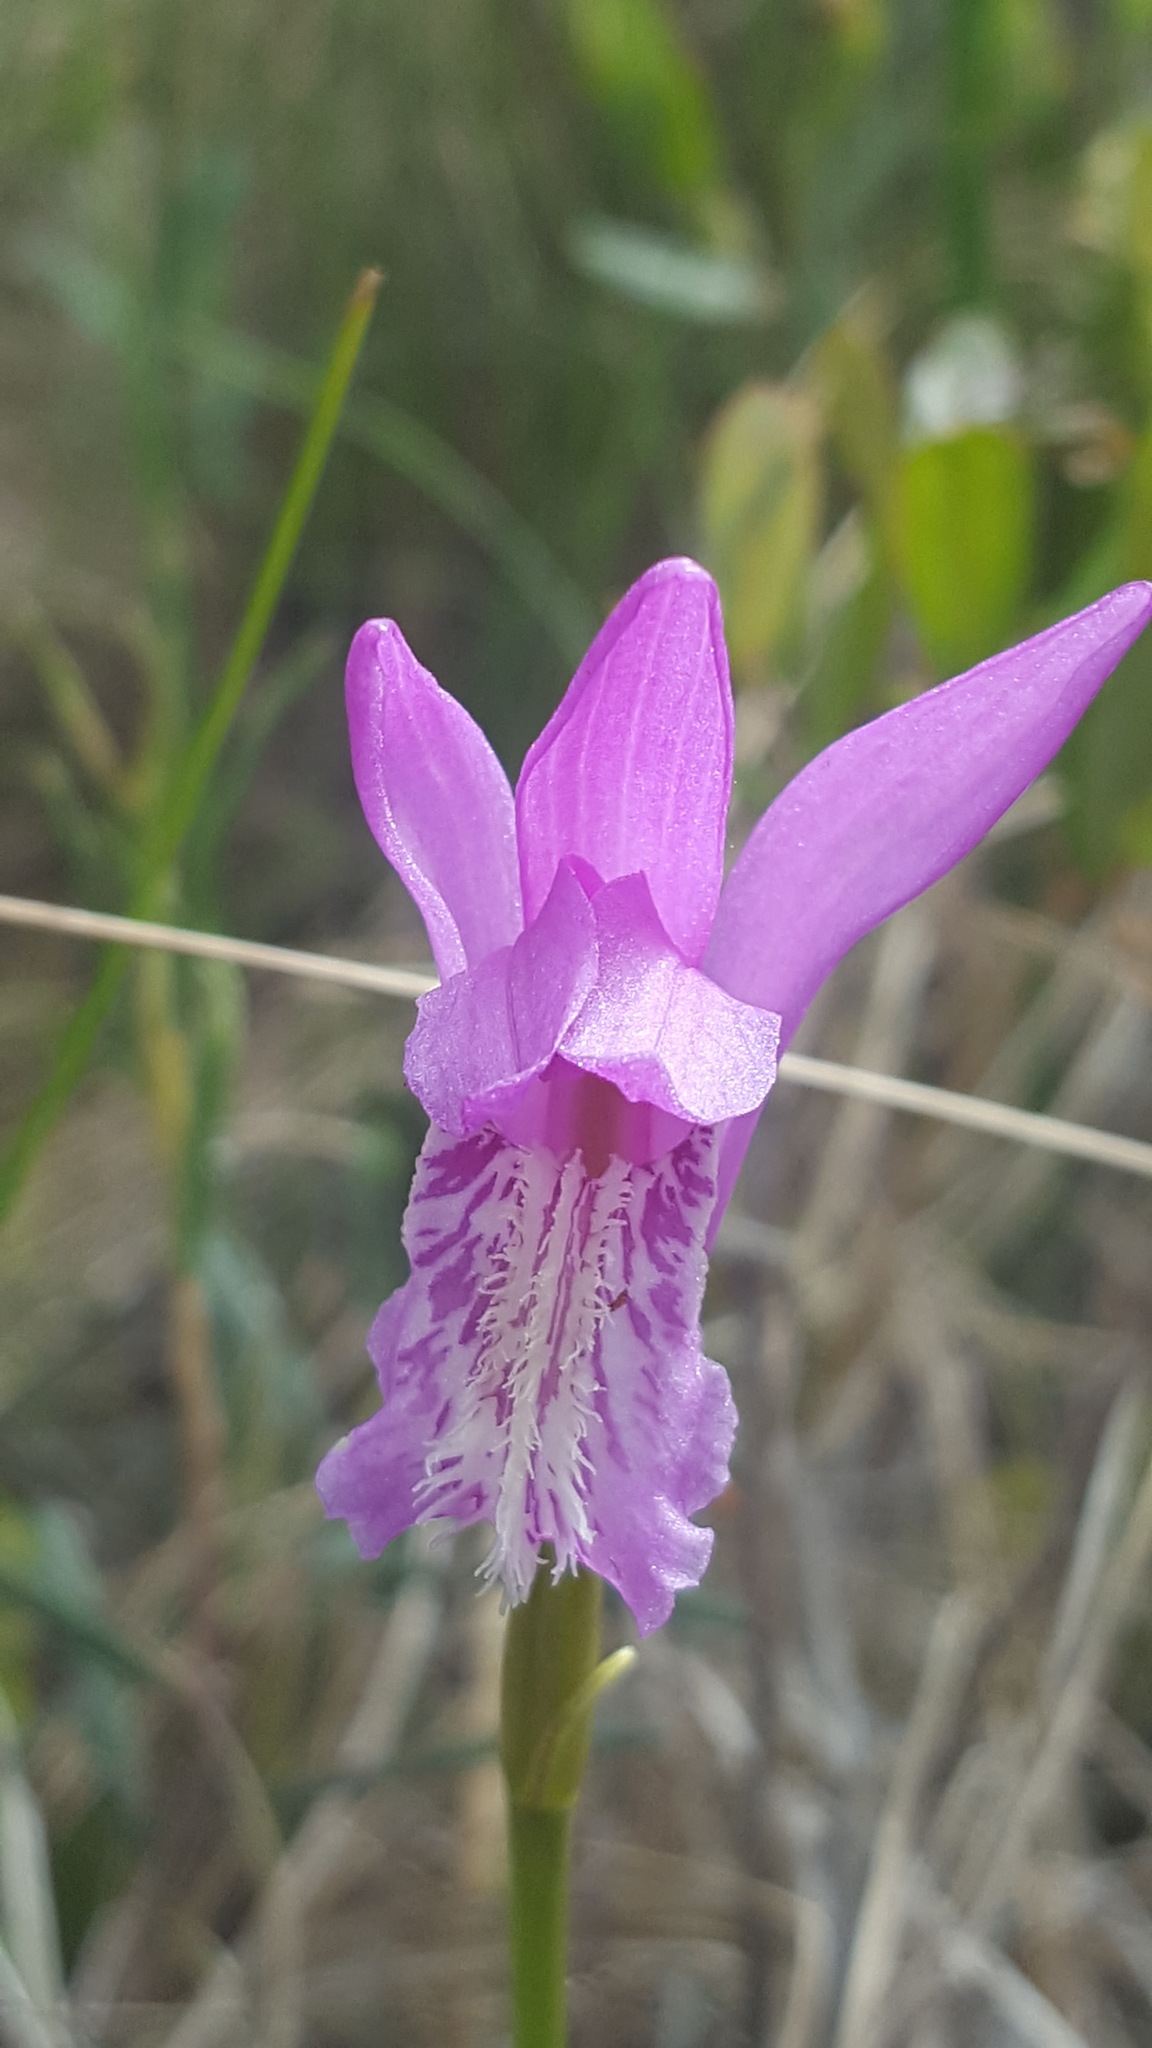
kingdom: Plantae
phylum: Tracheophyta
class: Liliopsida
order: Asparagales
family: Orchidaceae
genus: Arethusa
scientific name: Arethusa bulbosa
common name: Arethusa
